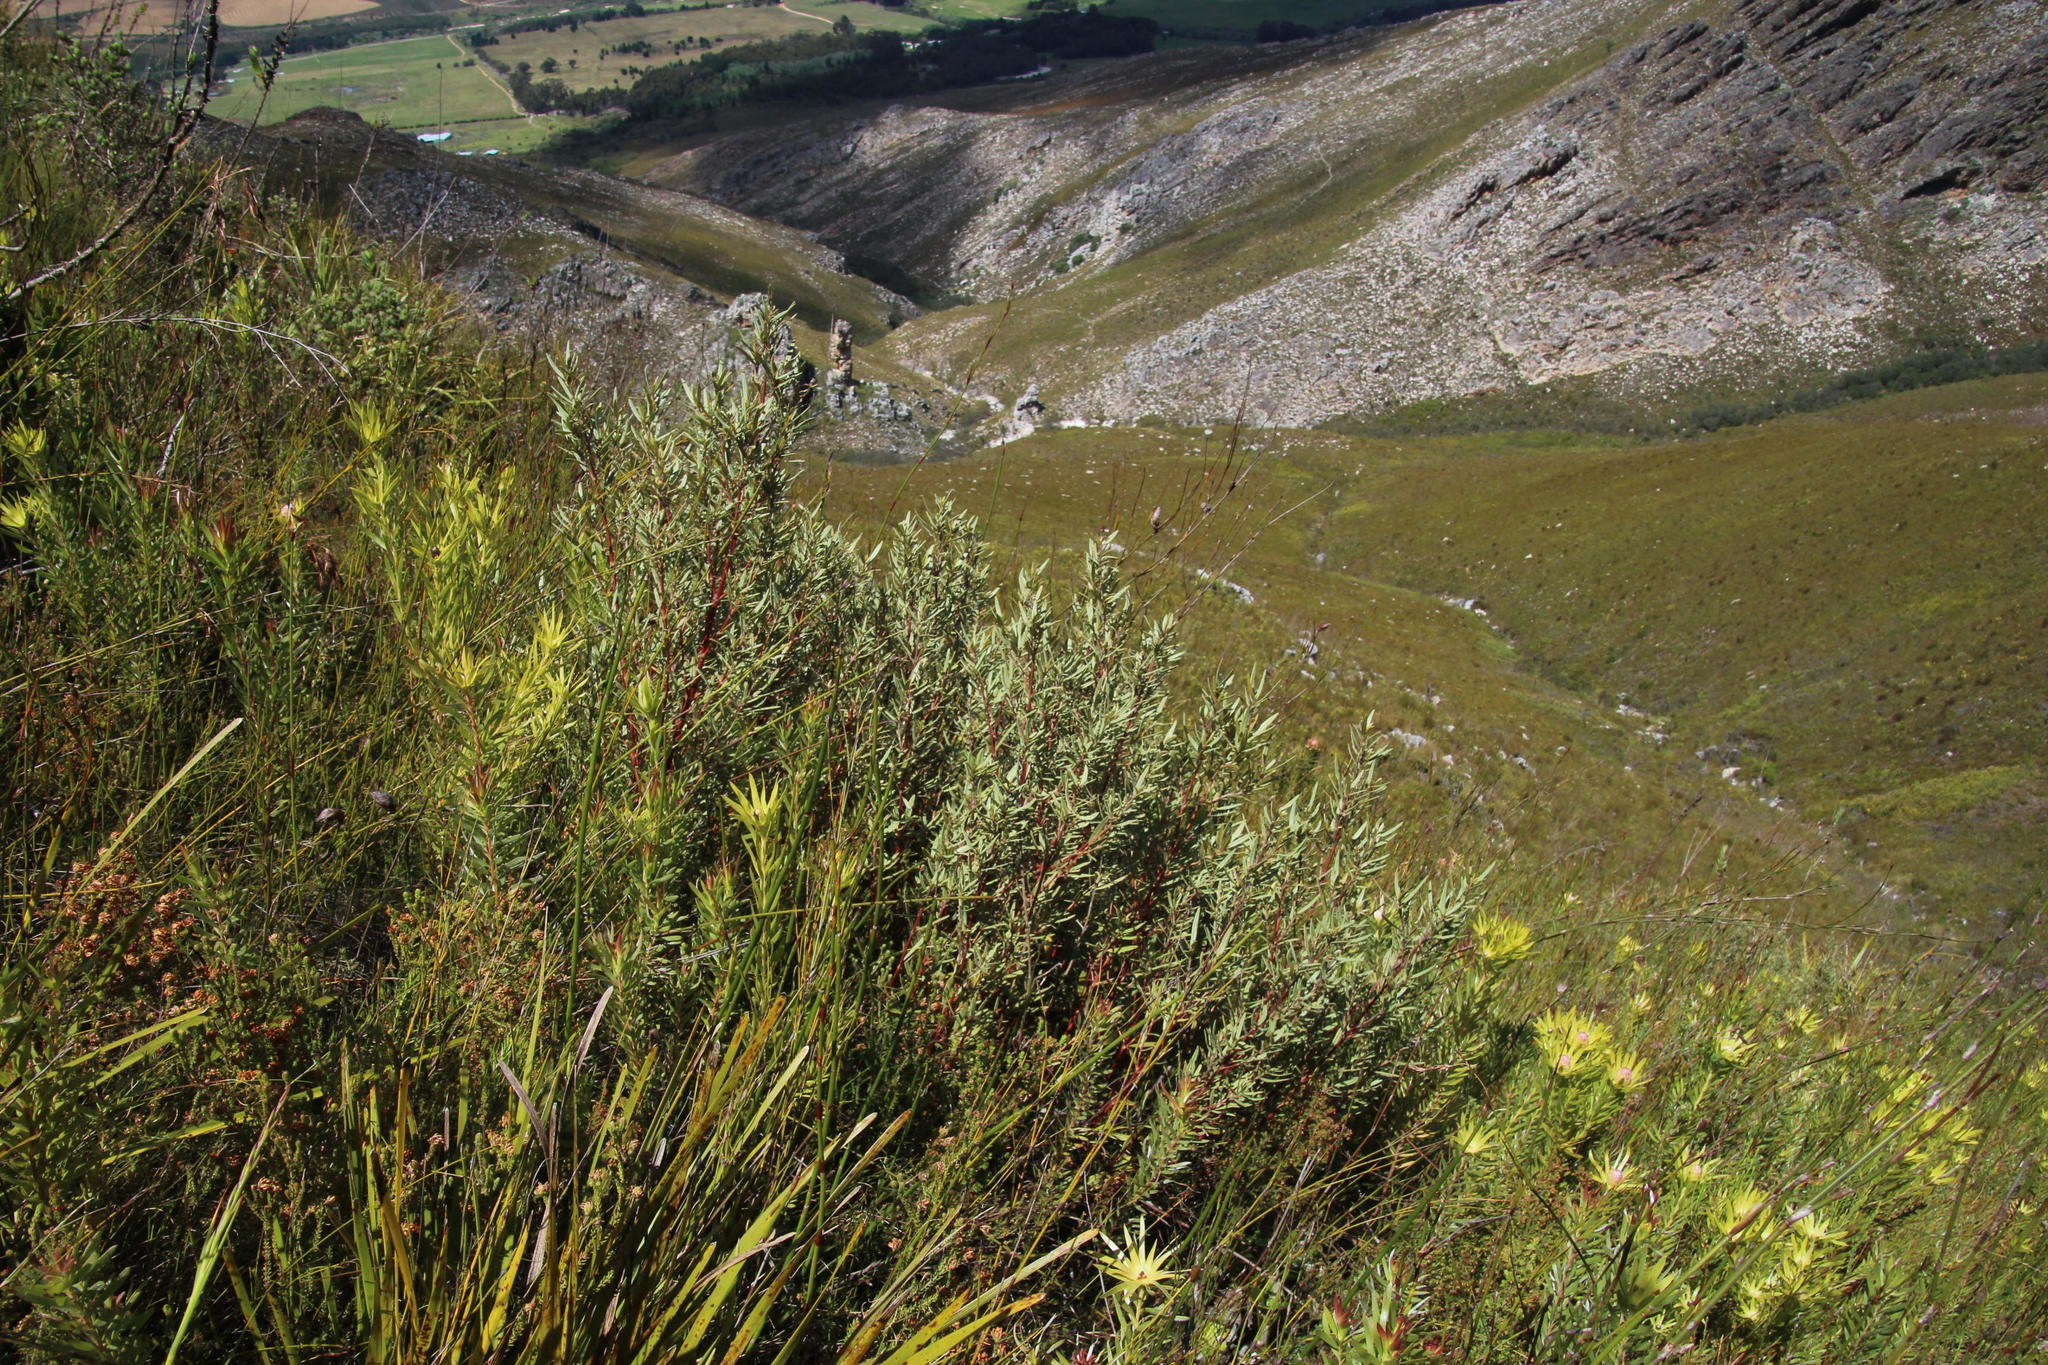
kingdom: Plantae
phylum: Tracheophyta
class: Magnoliopsida
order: Cornales
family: Grubbiaceae
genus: Grubbia
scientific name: Grubbia tomentosa
